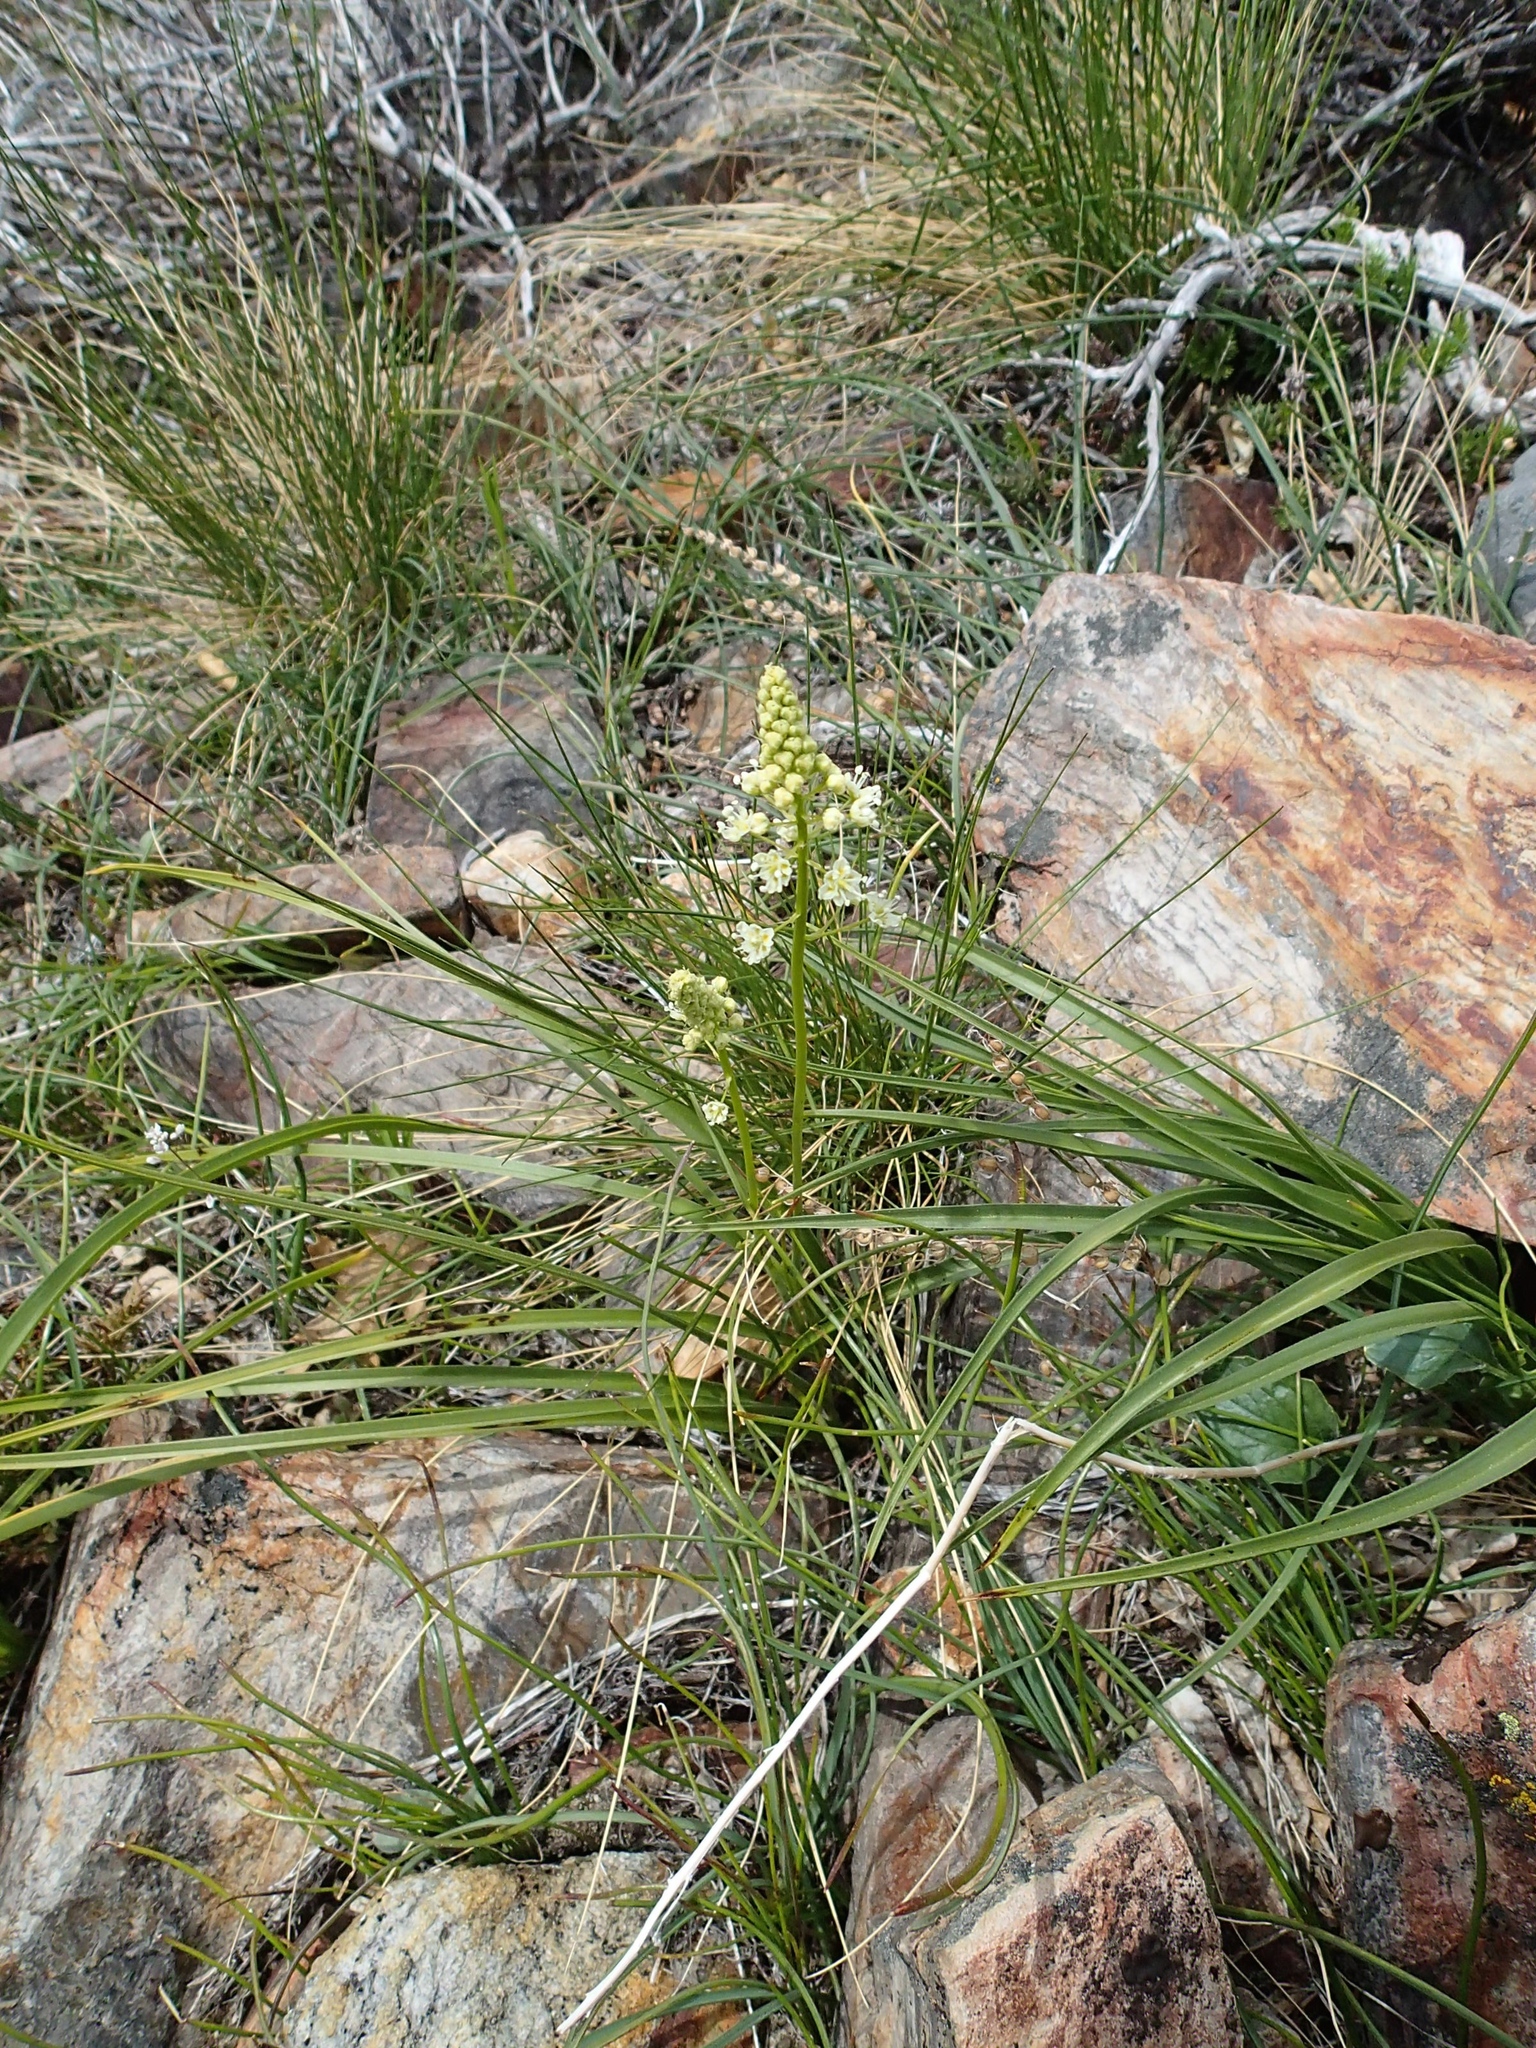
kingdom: Plantae
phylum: Tracheophyta
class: Liliopsida
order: Liliales
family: Melanthiaceae
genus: Toxicoscordion
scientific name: Toxicoscordion venenosum
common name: Meadow death camas
